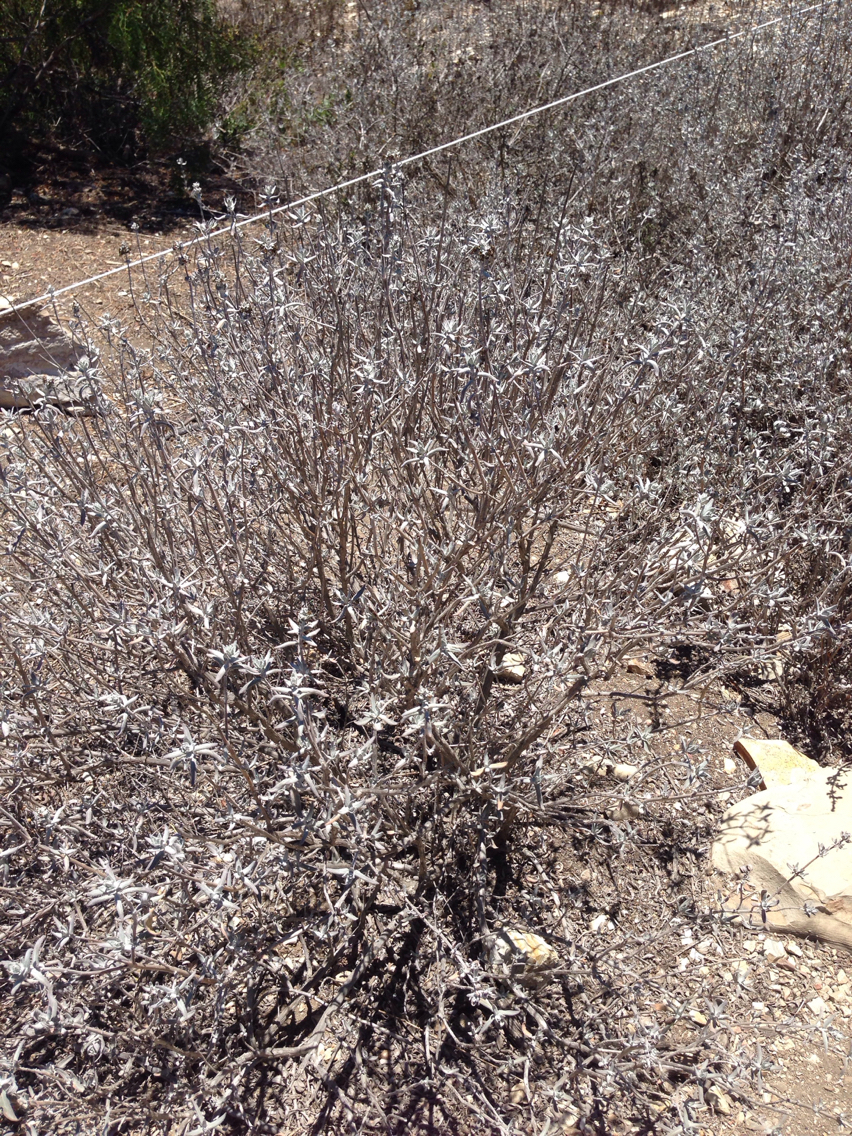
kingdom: Plantae
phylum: Tracheophyta
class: Magnoliopsida
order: Lamiales
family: Lamiaceae
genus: Salvia
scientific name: Salvia leucophylla
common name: Purple sage
